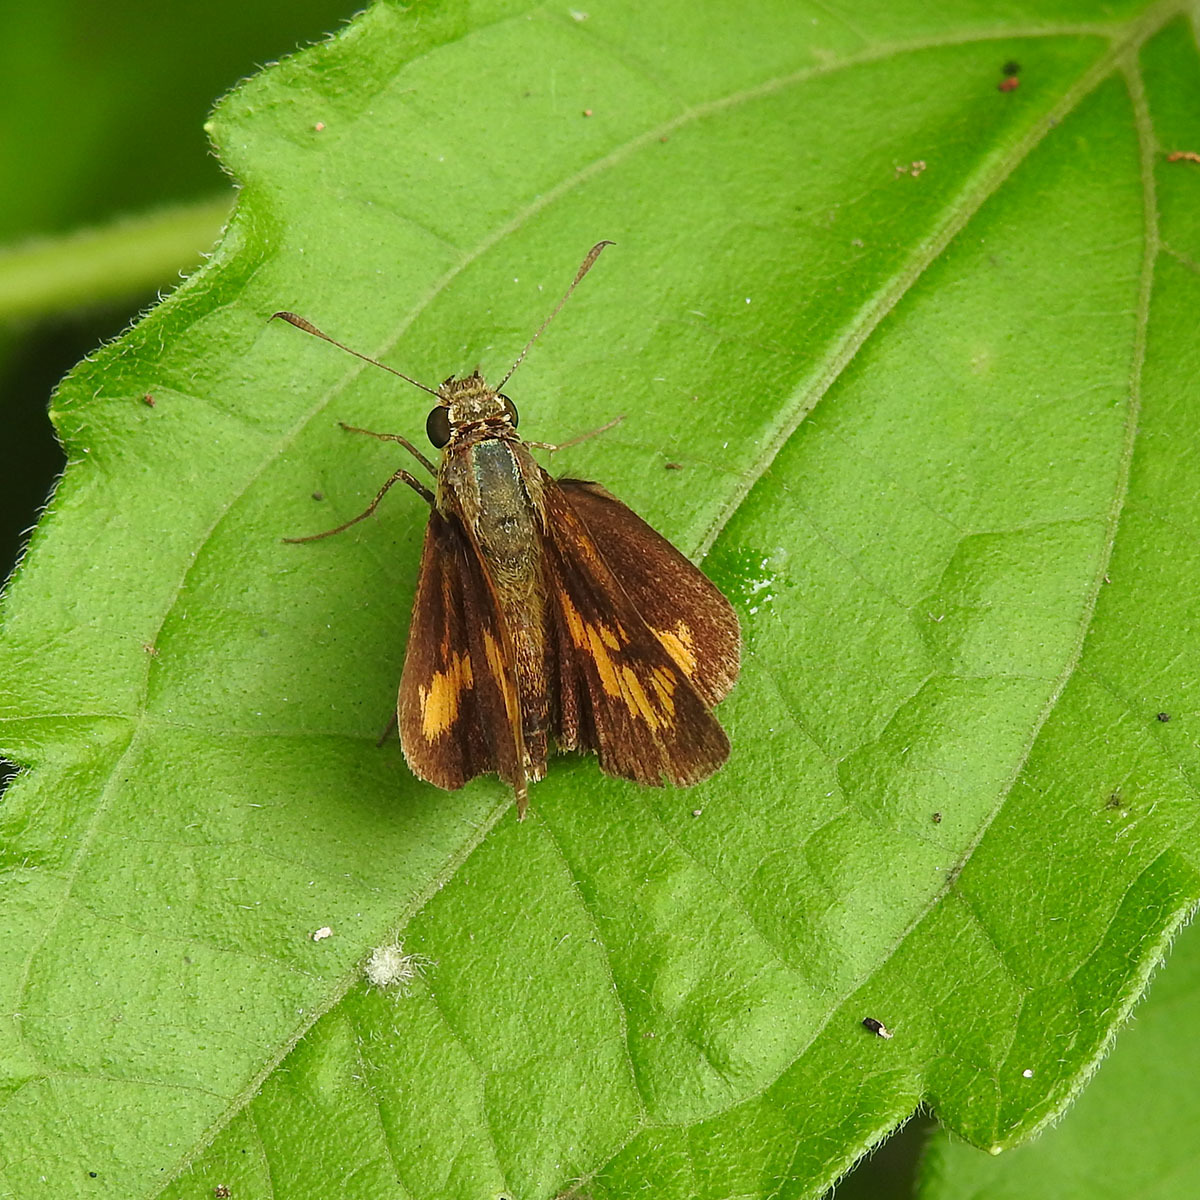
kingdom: Animalia
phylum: Arthropoda
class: Insecta
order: Lepidoptera
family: Hesperiidae
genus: Oriens
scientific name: Oriens goloides
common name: Smaller dartlet
